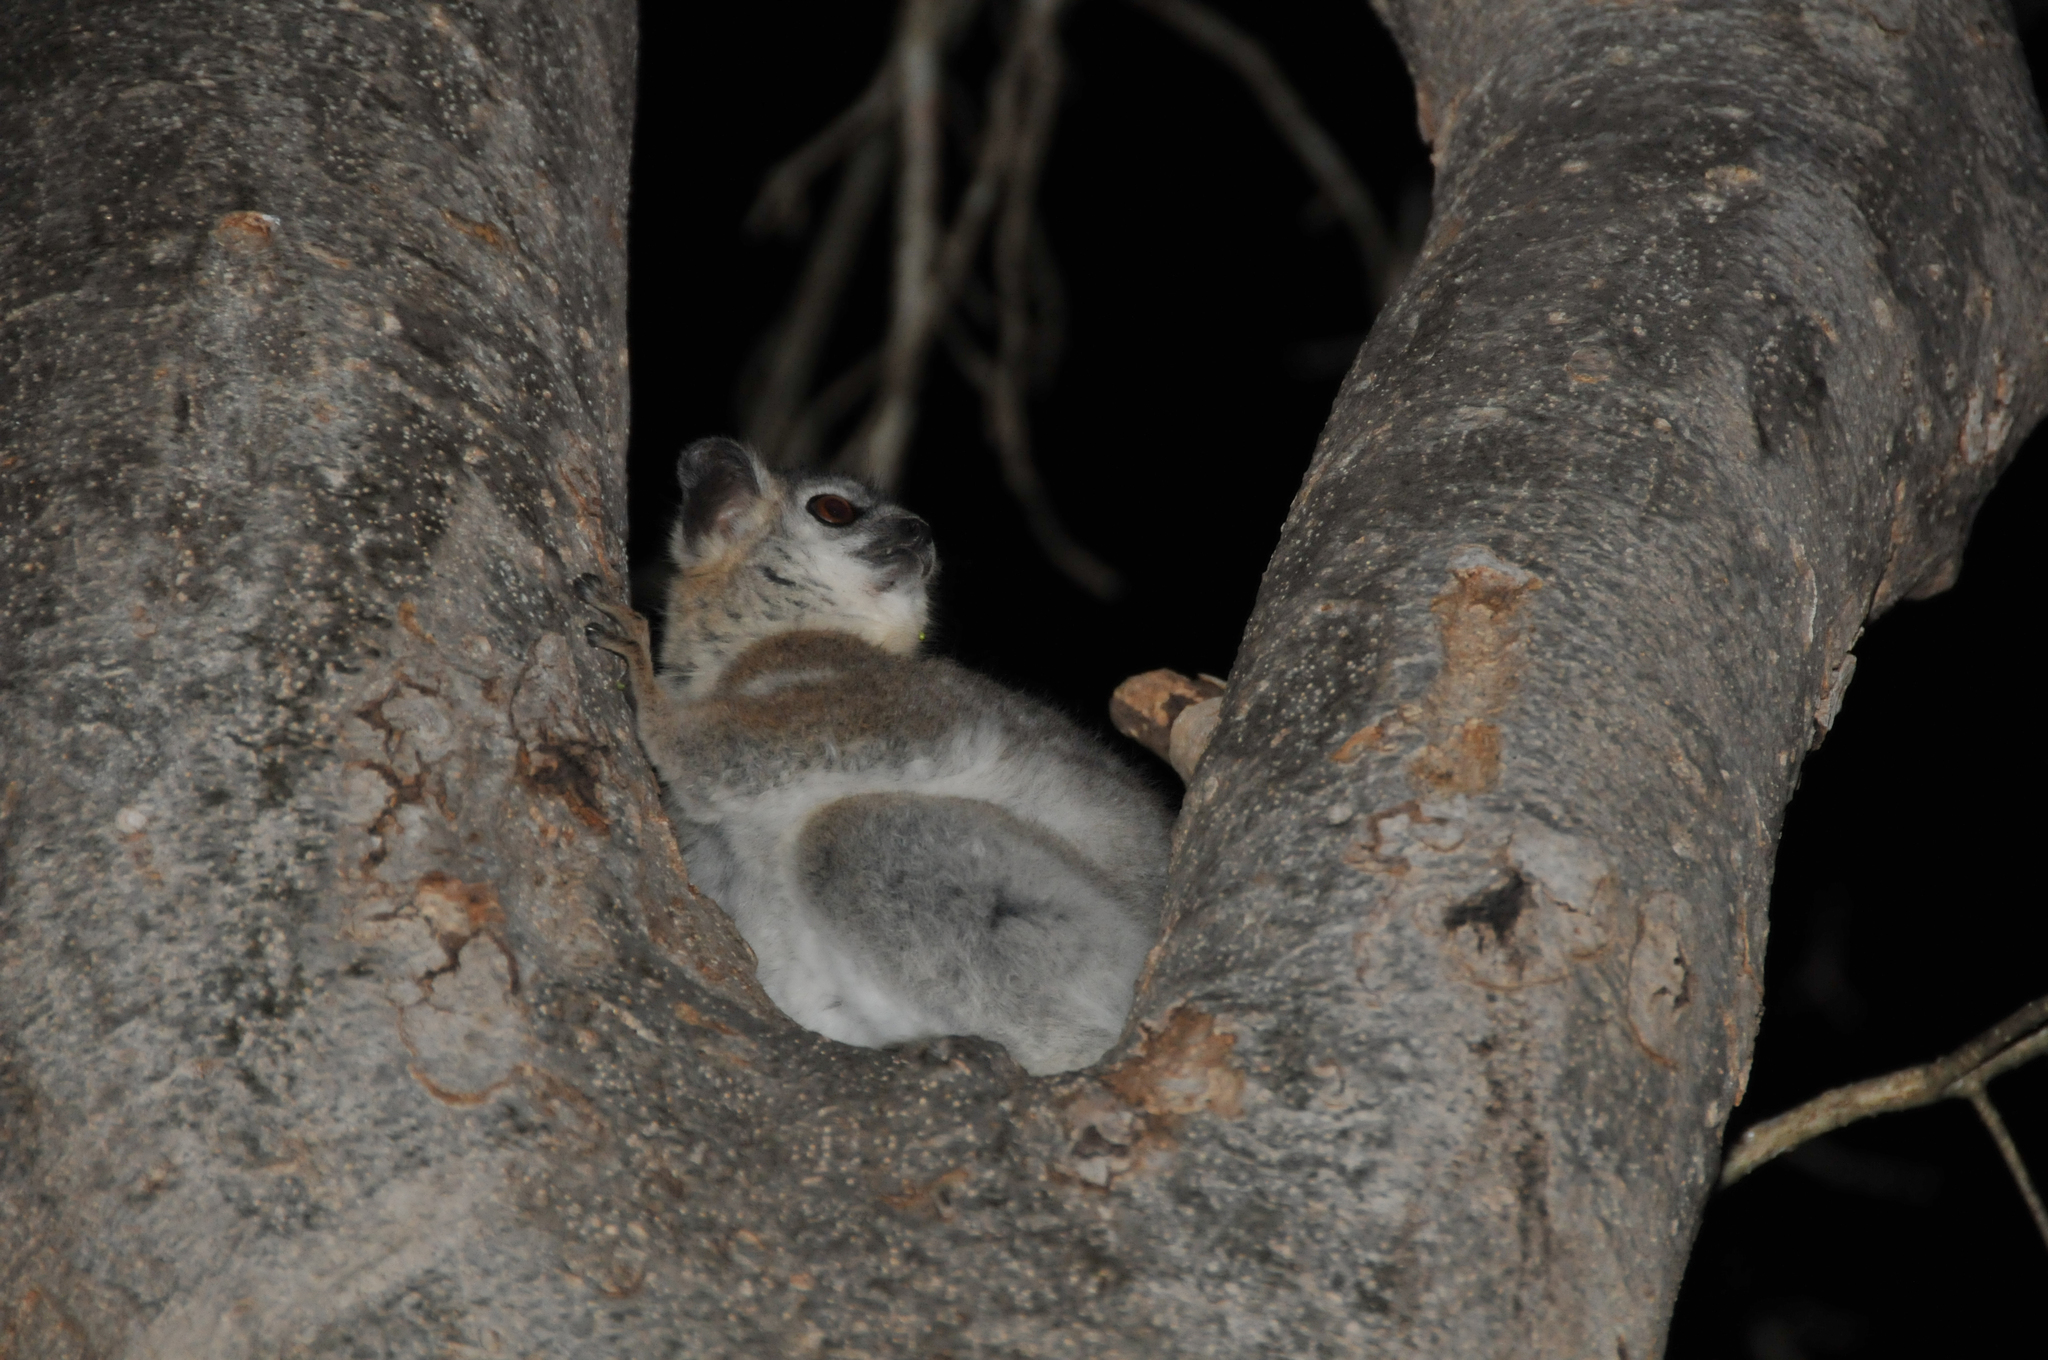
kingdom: Animalia
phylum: Chordata
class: Mammalia
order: Primates
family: Lepilemuridae
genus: Lepilemur
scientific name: Lepilemur leucopus
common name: White-footed sportive lemur
